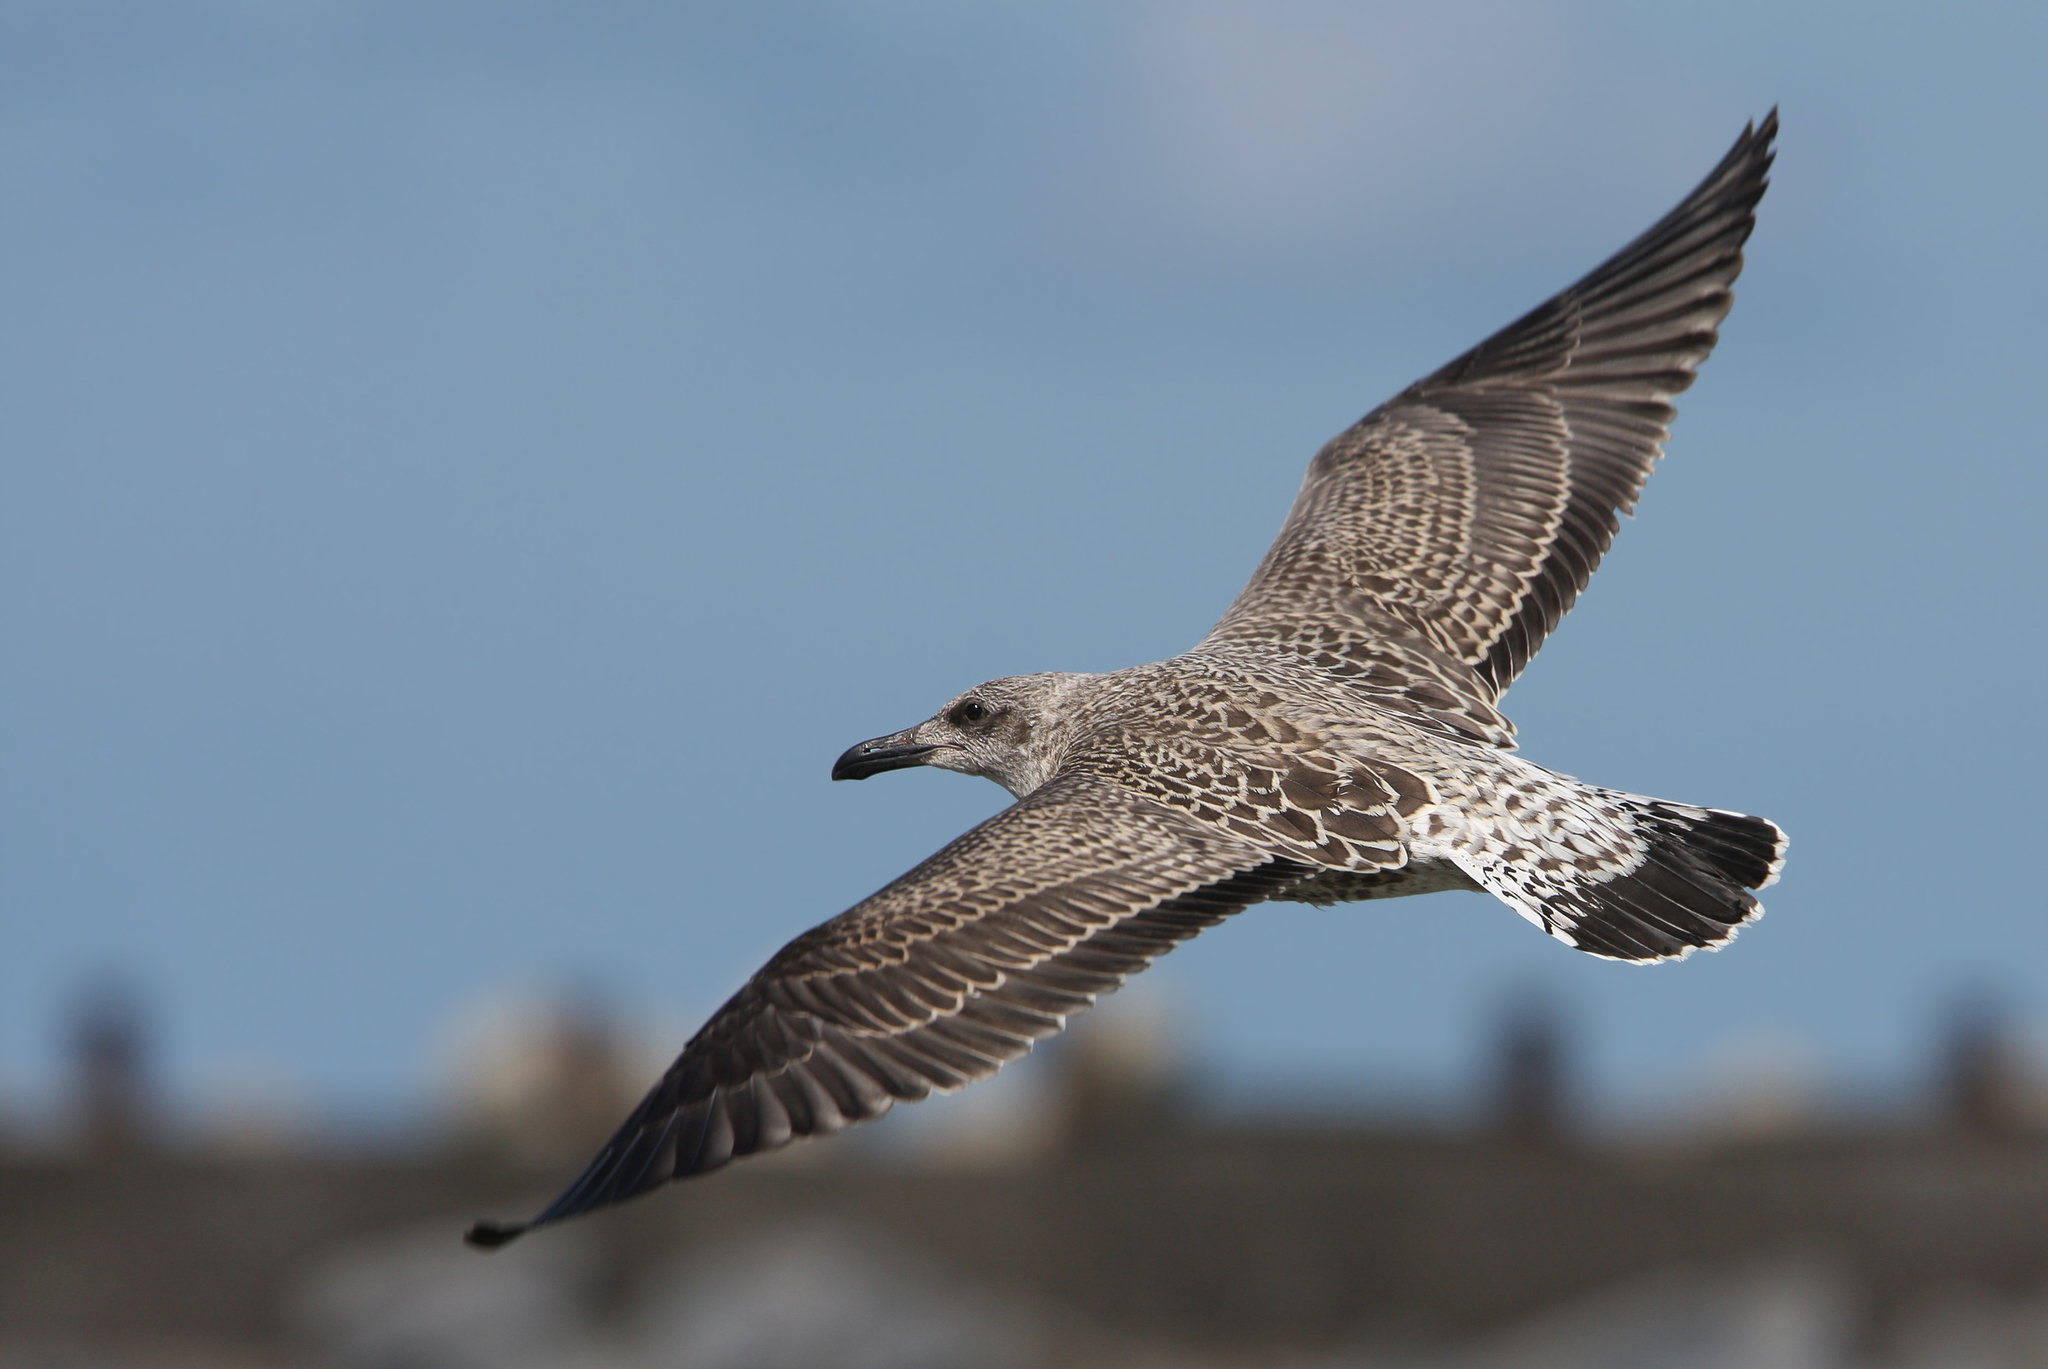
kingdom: Animalia
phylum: Chordata
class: Aves
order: Charadriiformes
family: Laridae
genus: Larus
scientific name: Larus fuscus
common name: Lesser black-backed gull
